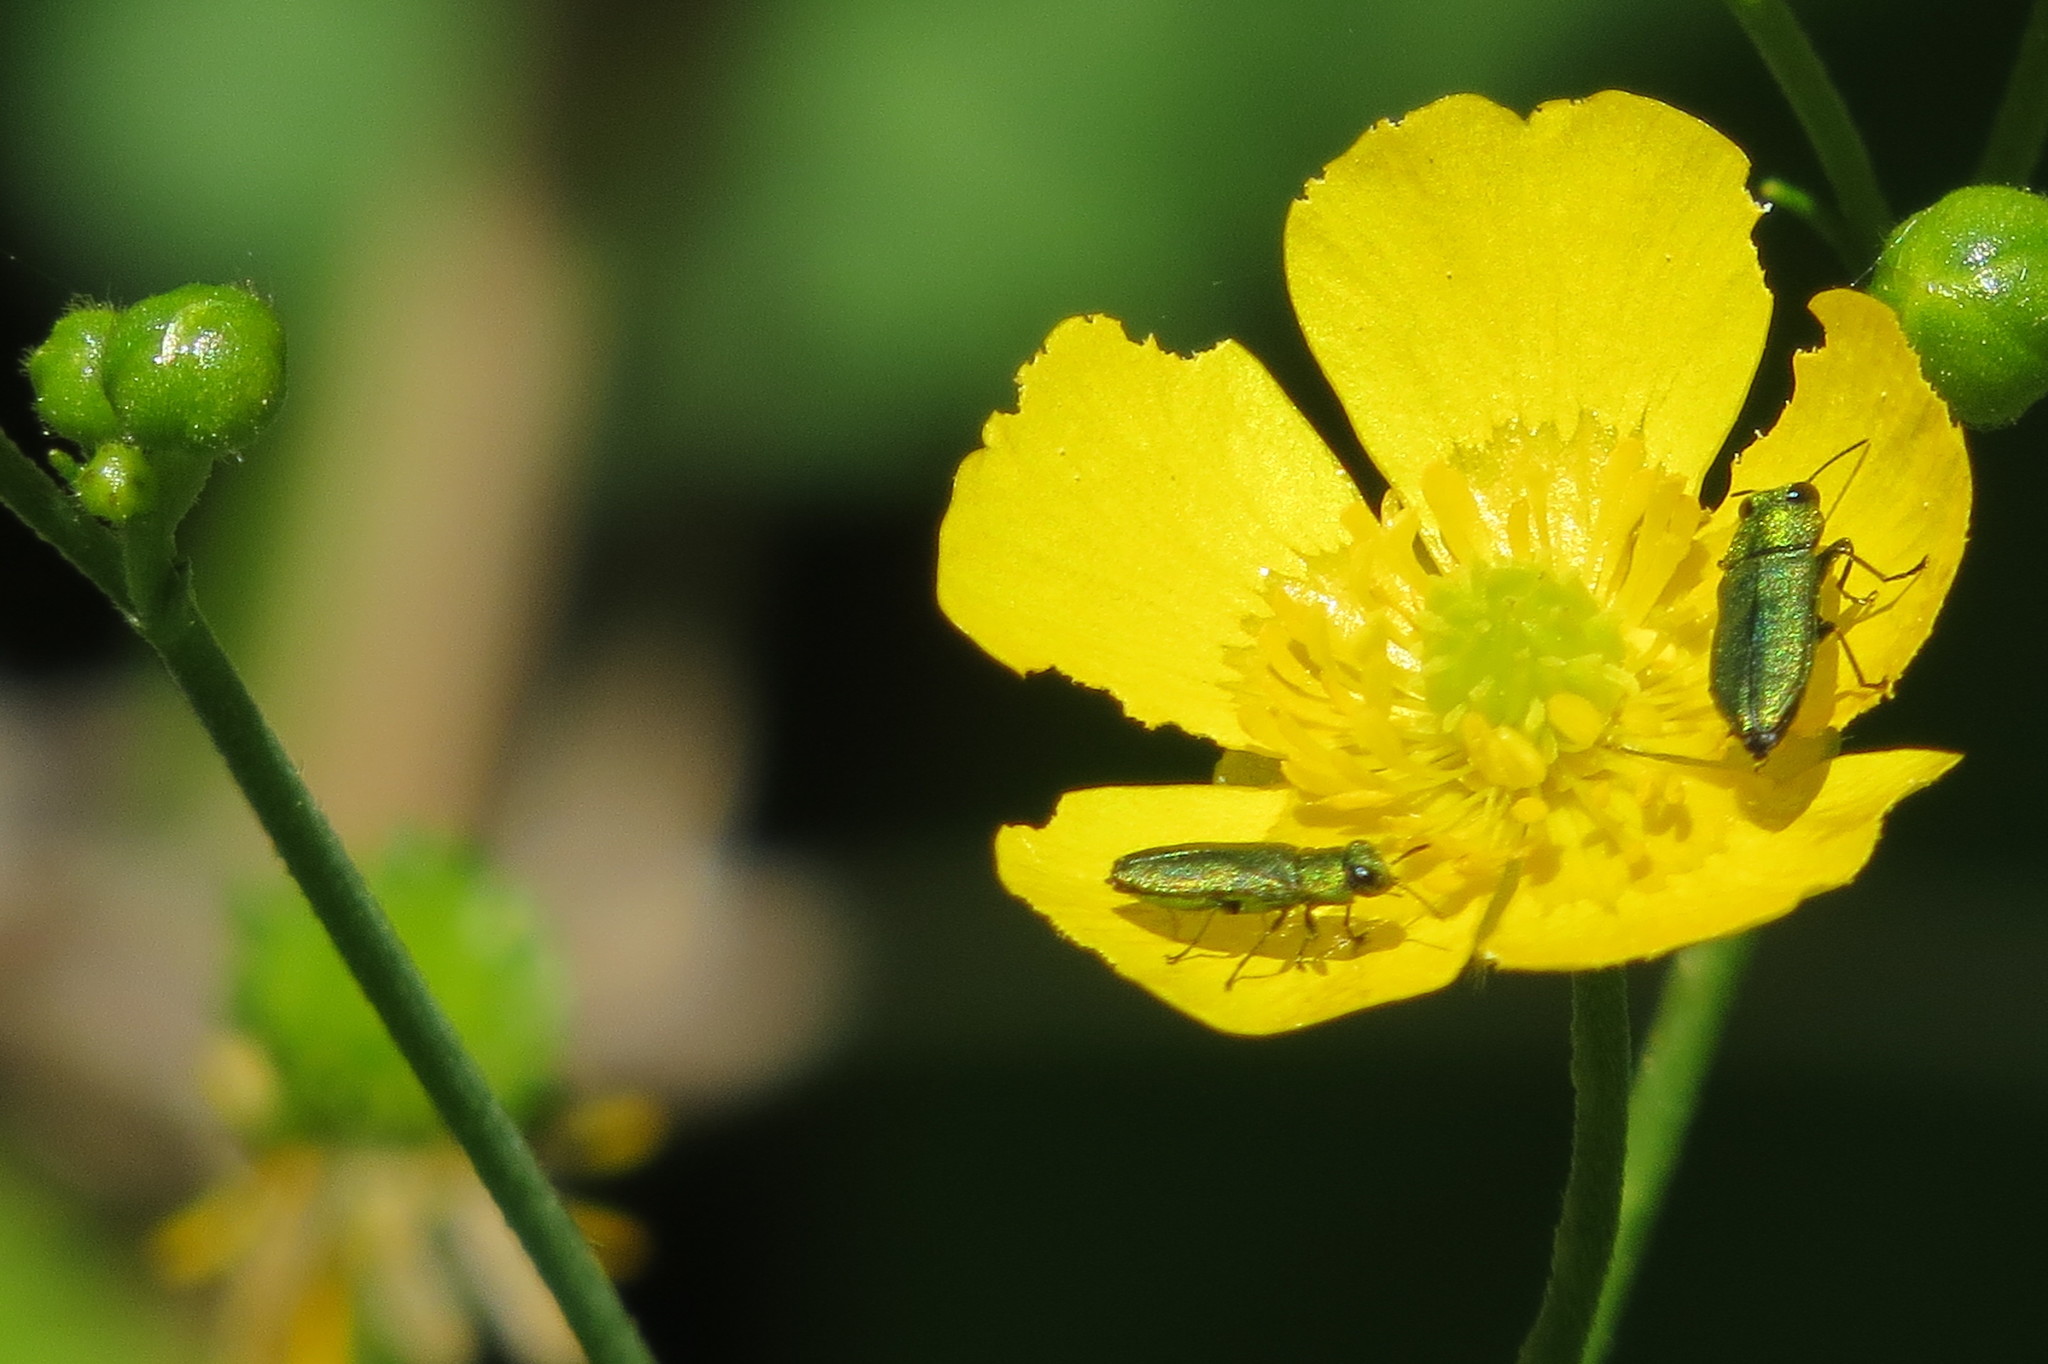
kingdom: Animalia
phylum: Arthropoda
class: Insecta
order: Coleoptera
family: Buprestidae
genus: Anthaxia
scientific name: Anthaxia nitidula
